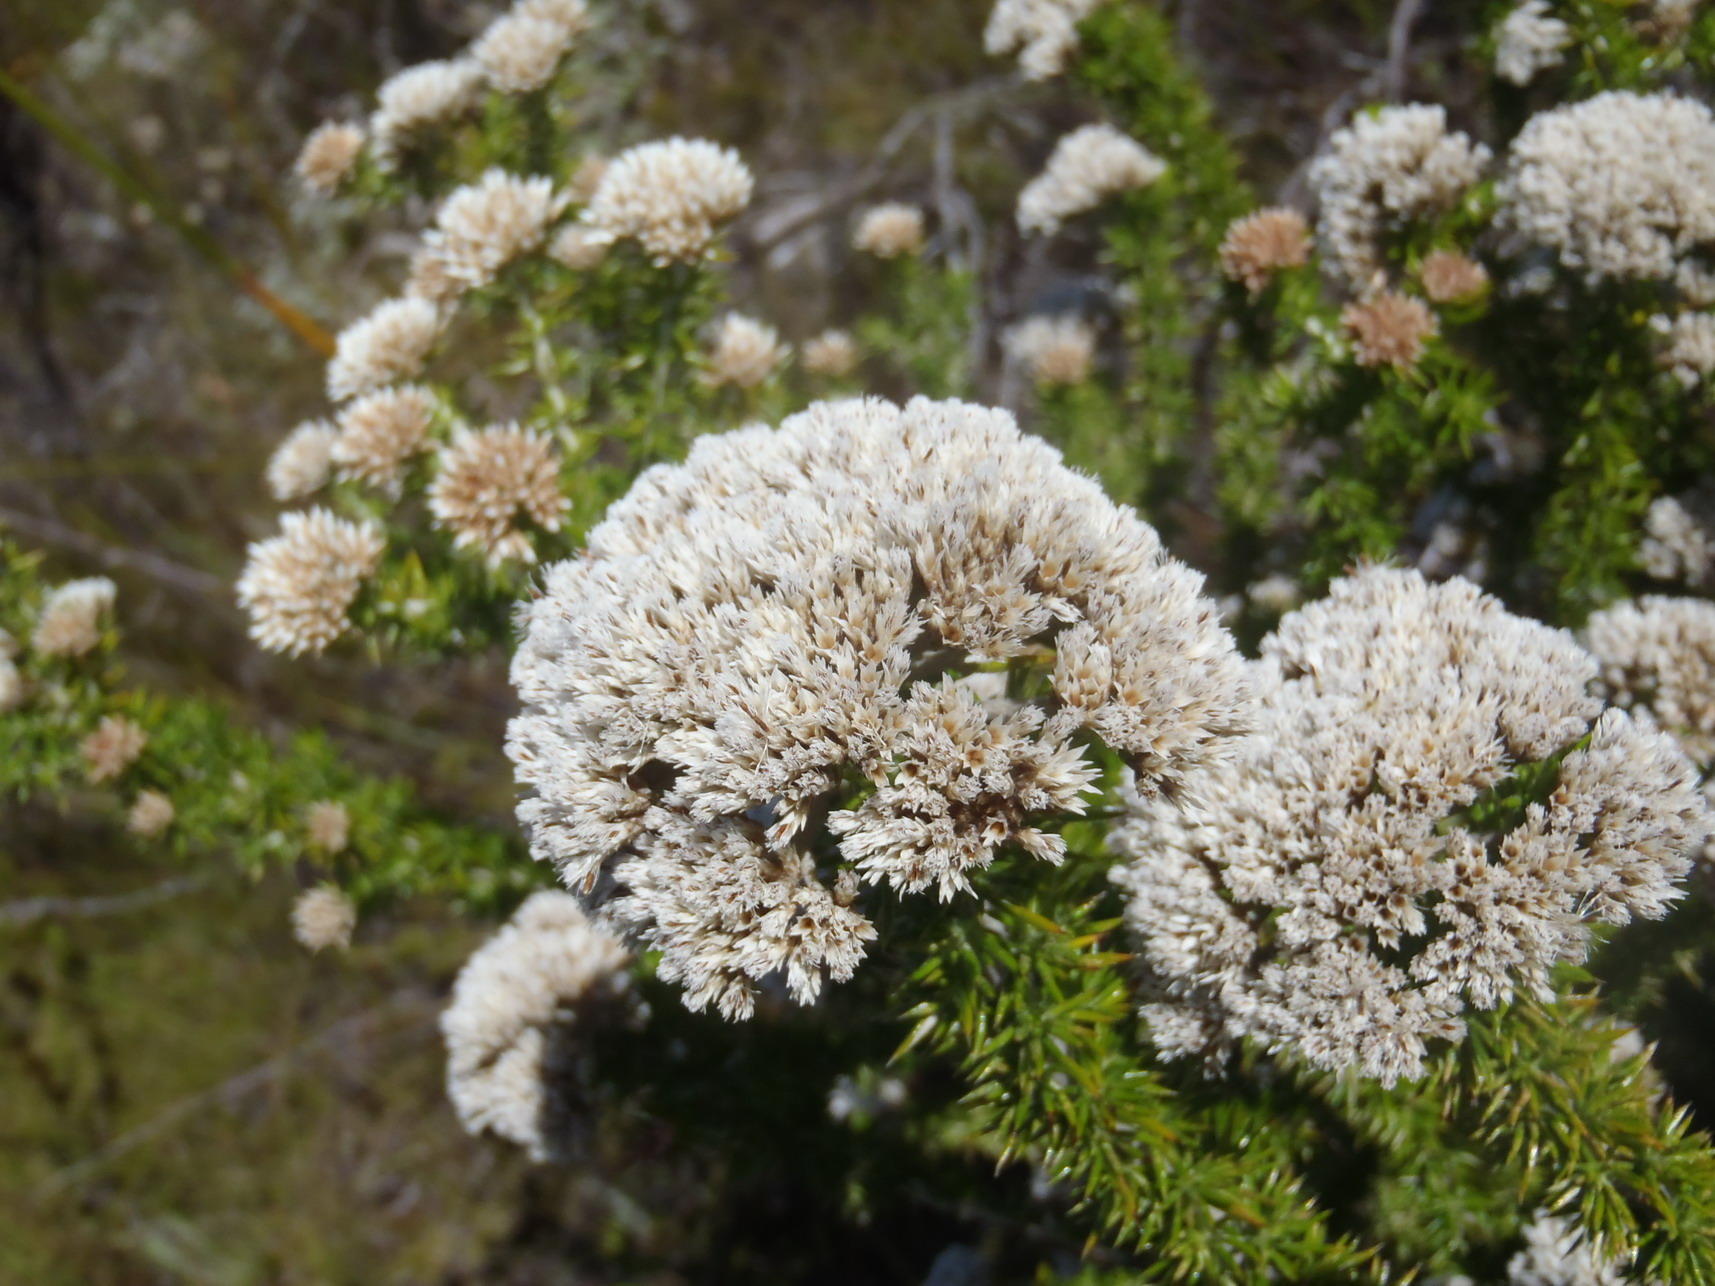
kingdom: Plantae
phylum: Tracheophyta
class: Magnoliopsida
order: Asterales
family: Asteraceae
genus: Metalasia
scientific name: Metalasia acuta
